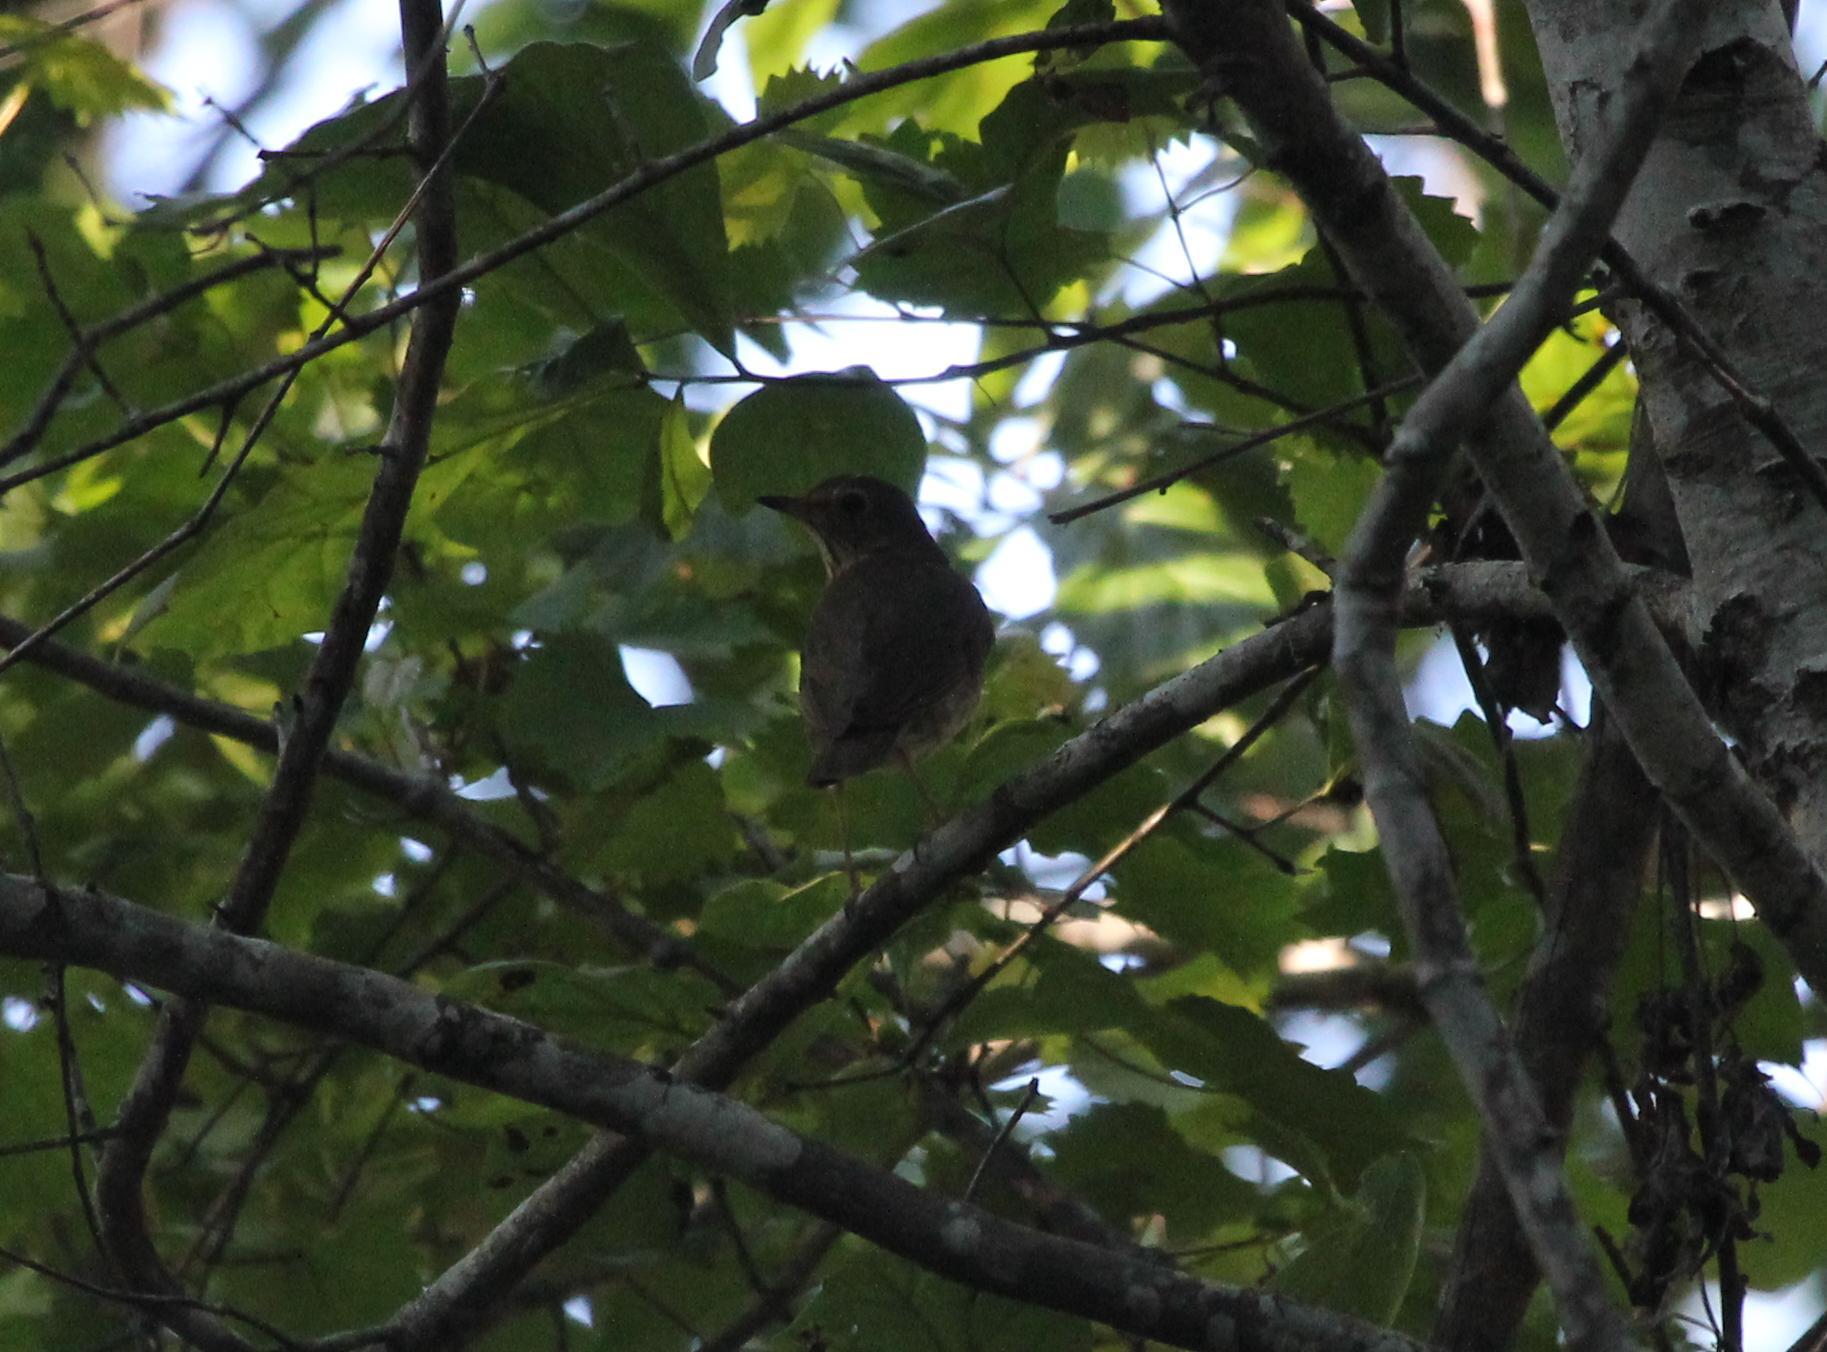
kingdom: Animalia
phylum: Chordata
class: Aves
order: Passeriformes
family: Turdidae
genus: Catharus
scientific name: Catharus ustulatus
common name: Swainson's thrush
